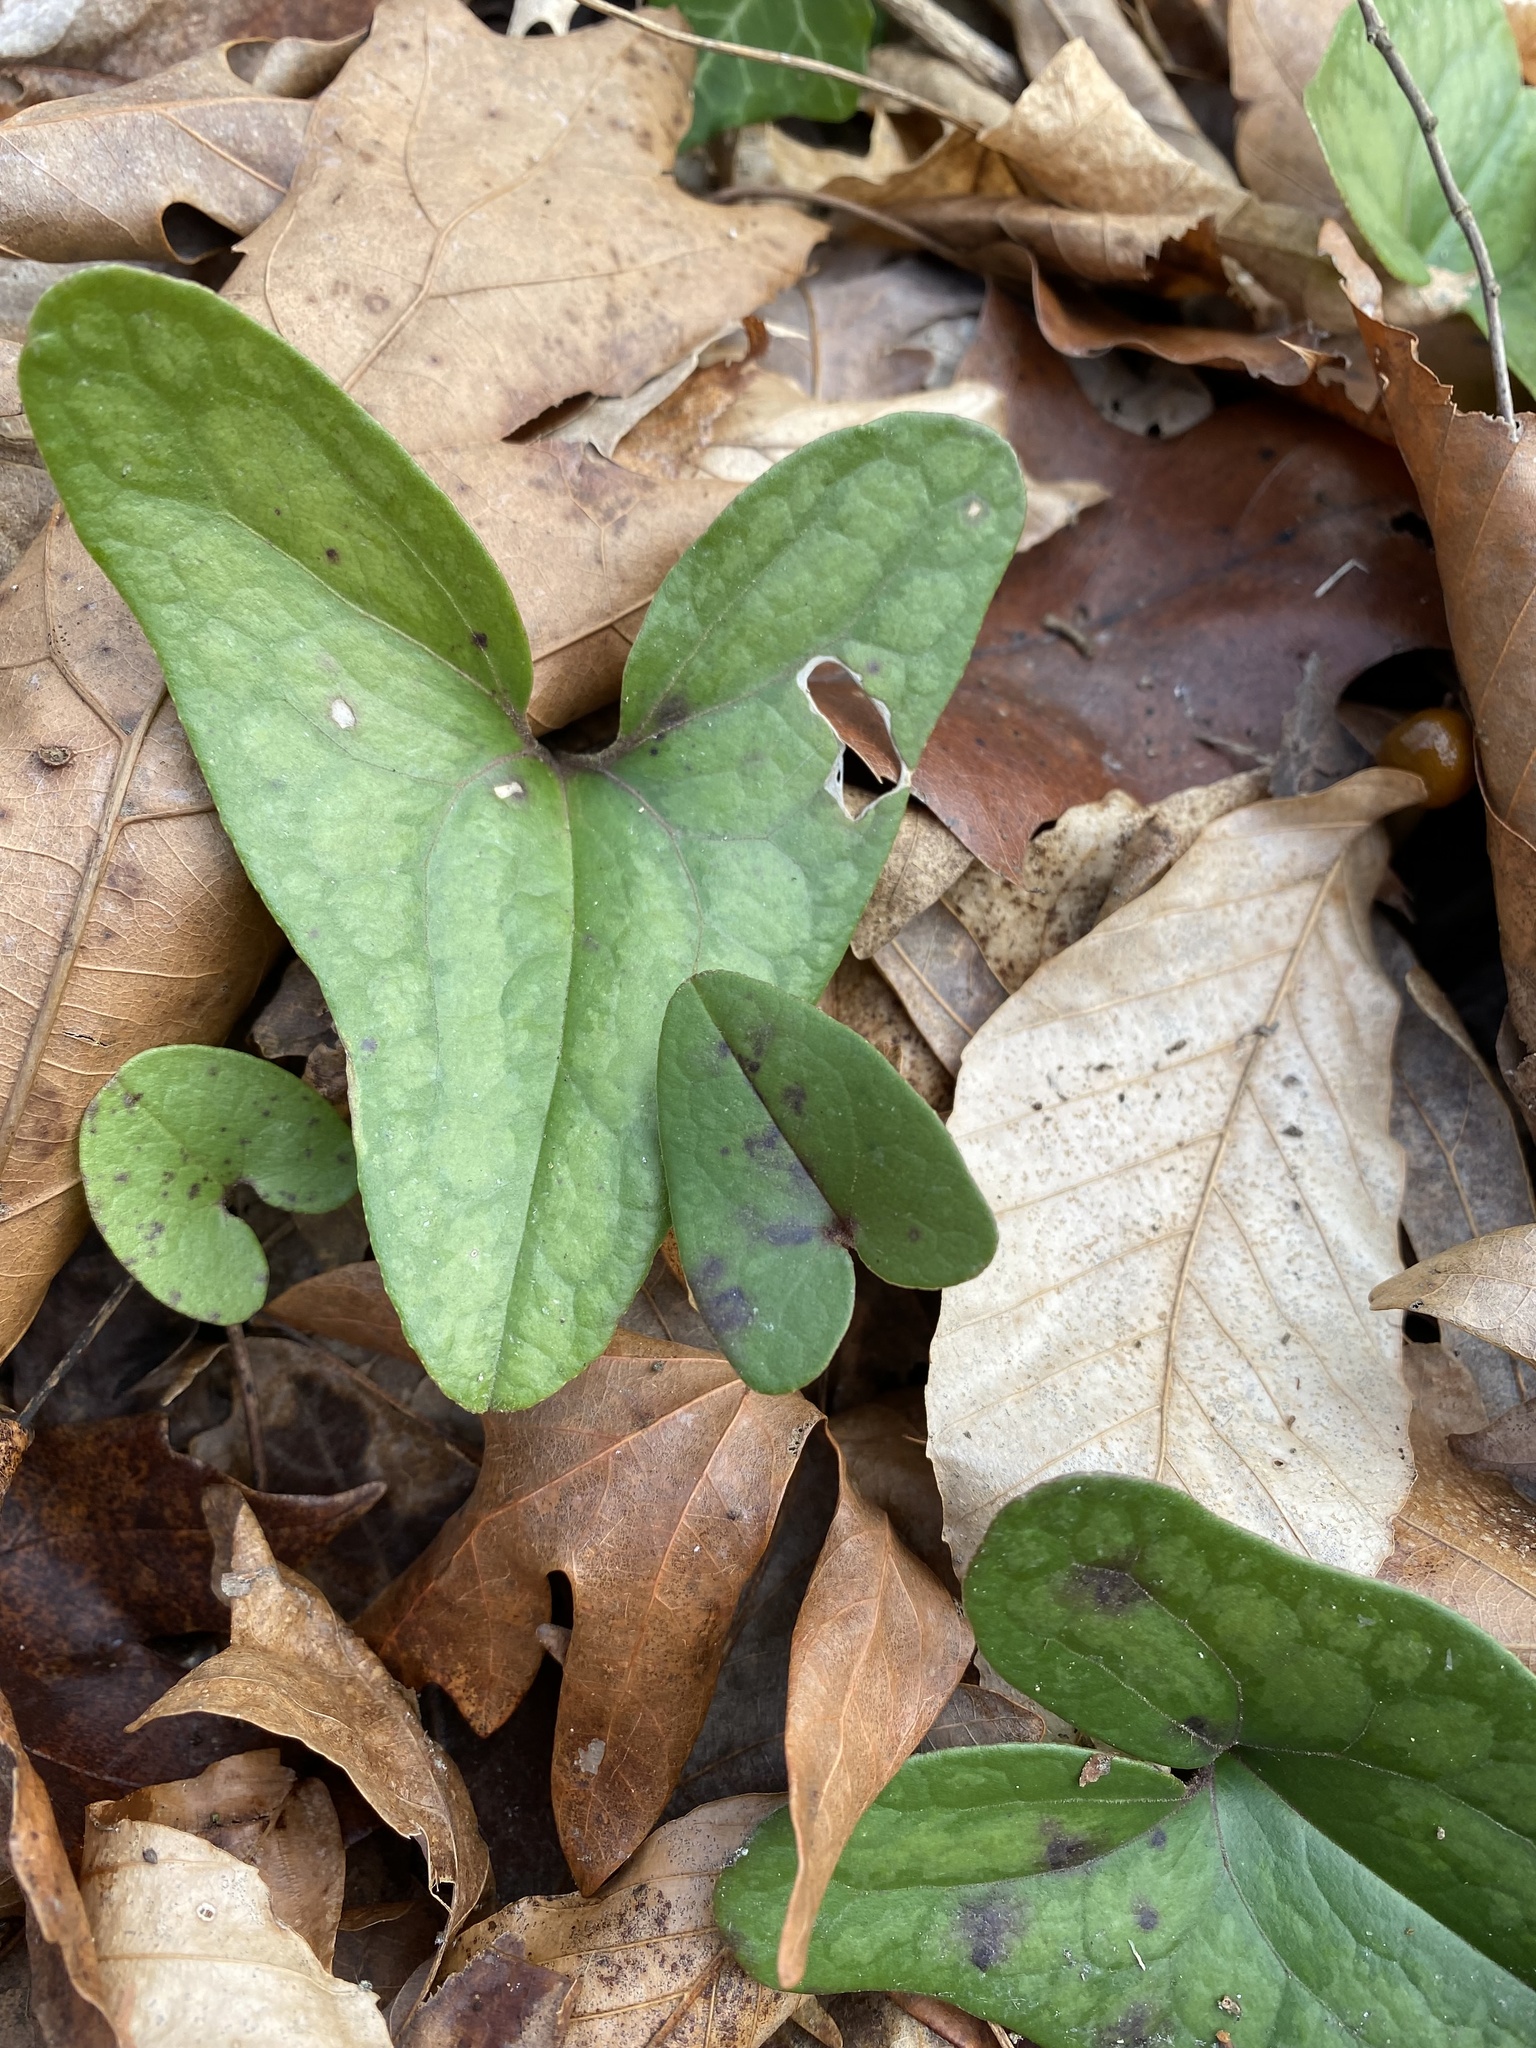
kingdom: Plantae
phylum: Tracheophyta
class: Magnoliopsida
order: Piperales
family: Aristolochiaceae
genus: Hexastylis
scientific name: Hexastylis arifolia
